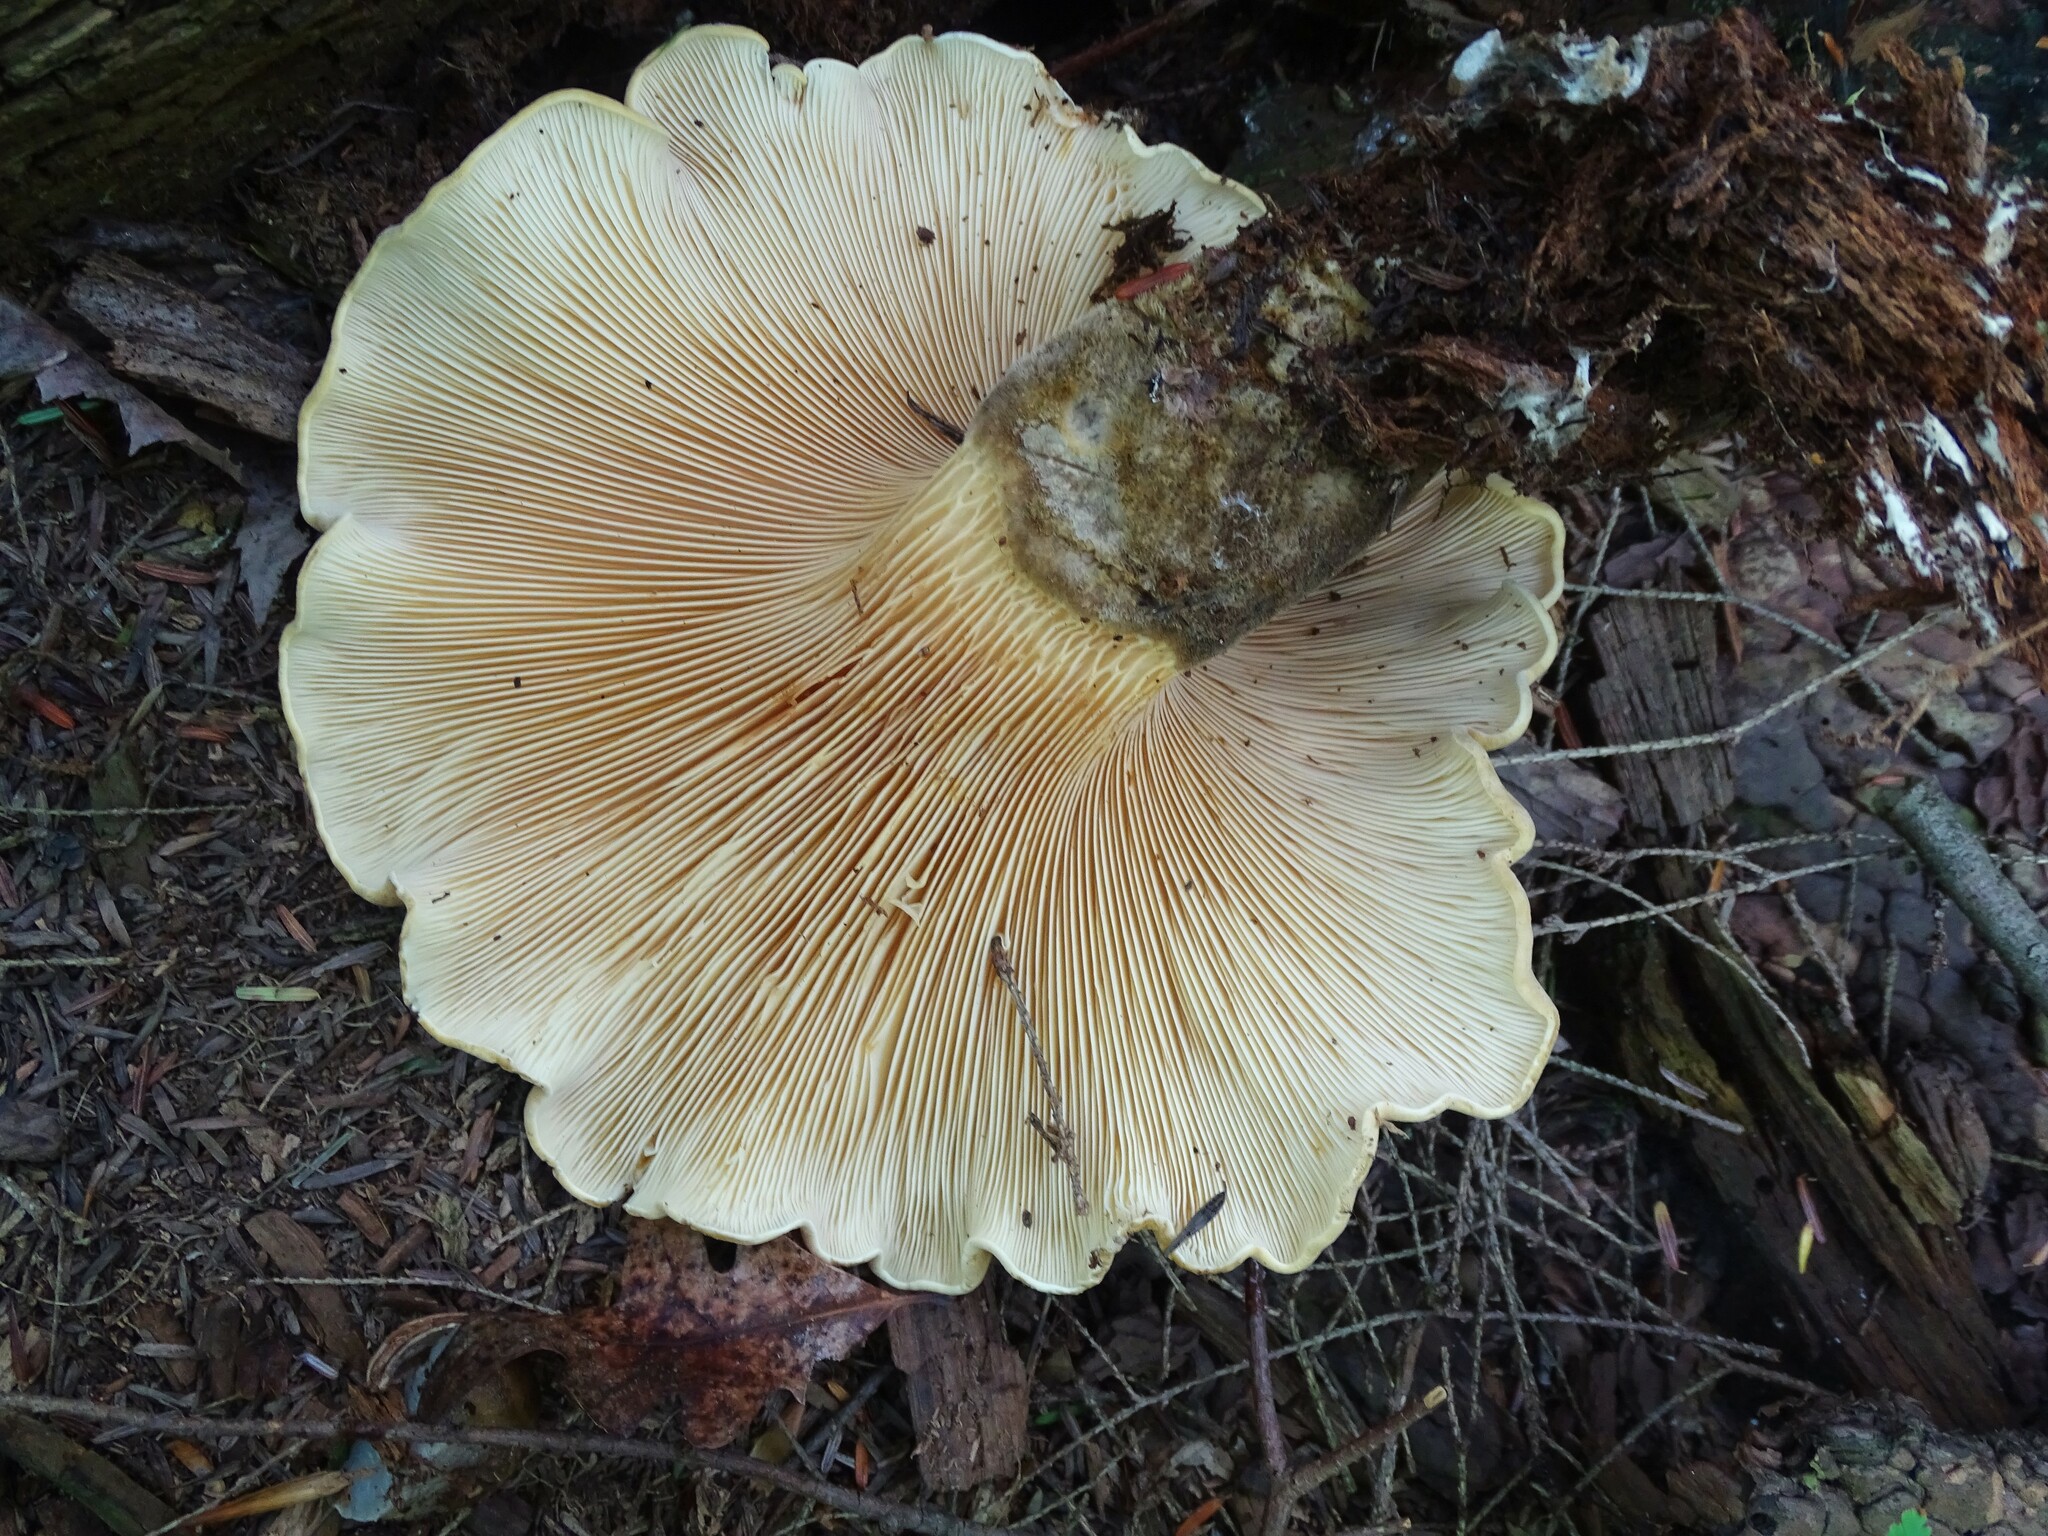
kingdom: Fungi
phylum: Basidiomycota
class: Agaricomycetes
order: Boletales
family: Tapinellaceae
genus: Tapinella
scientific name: Tapinella atrotomentosa
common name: Velvet rollrim
